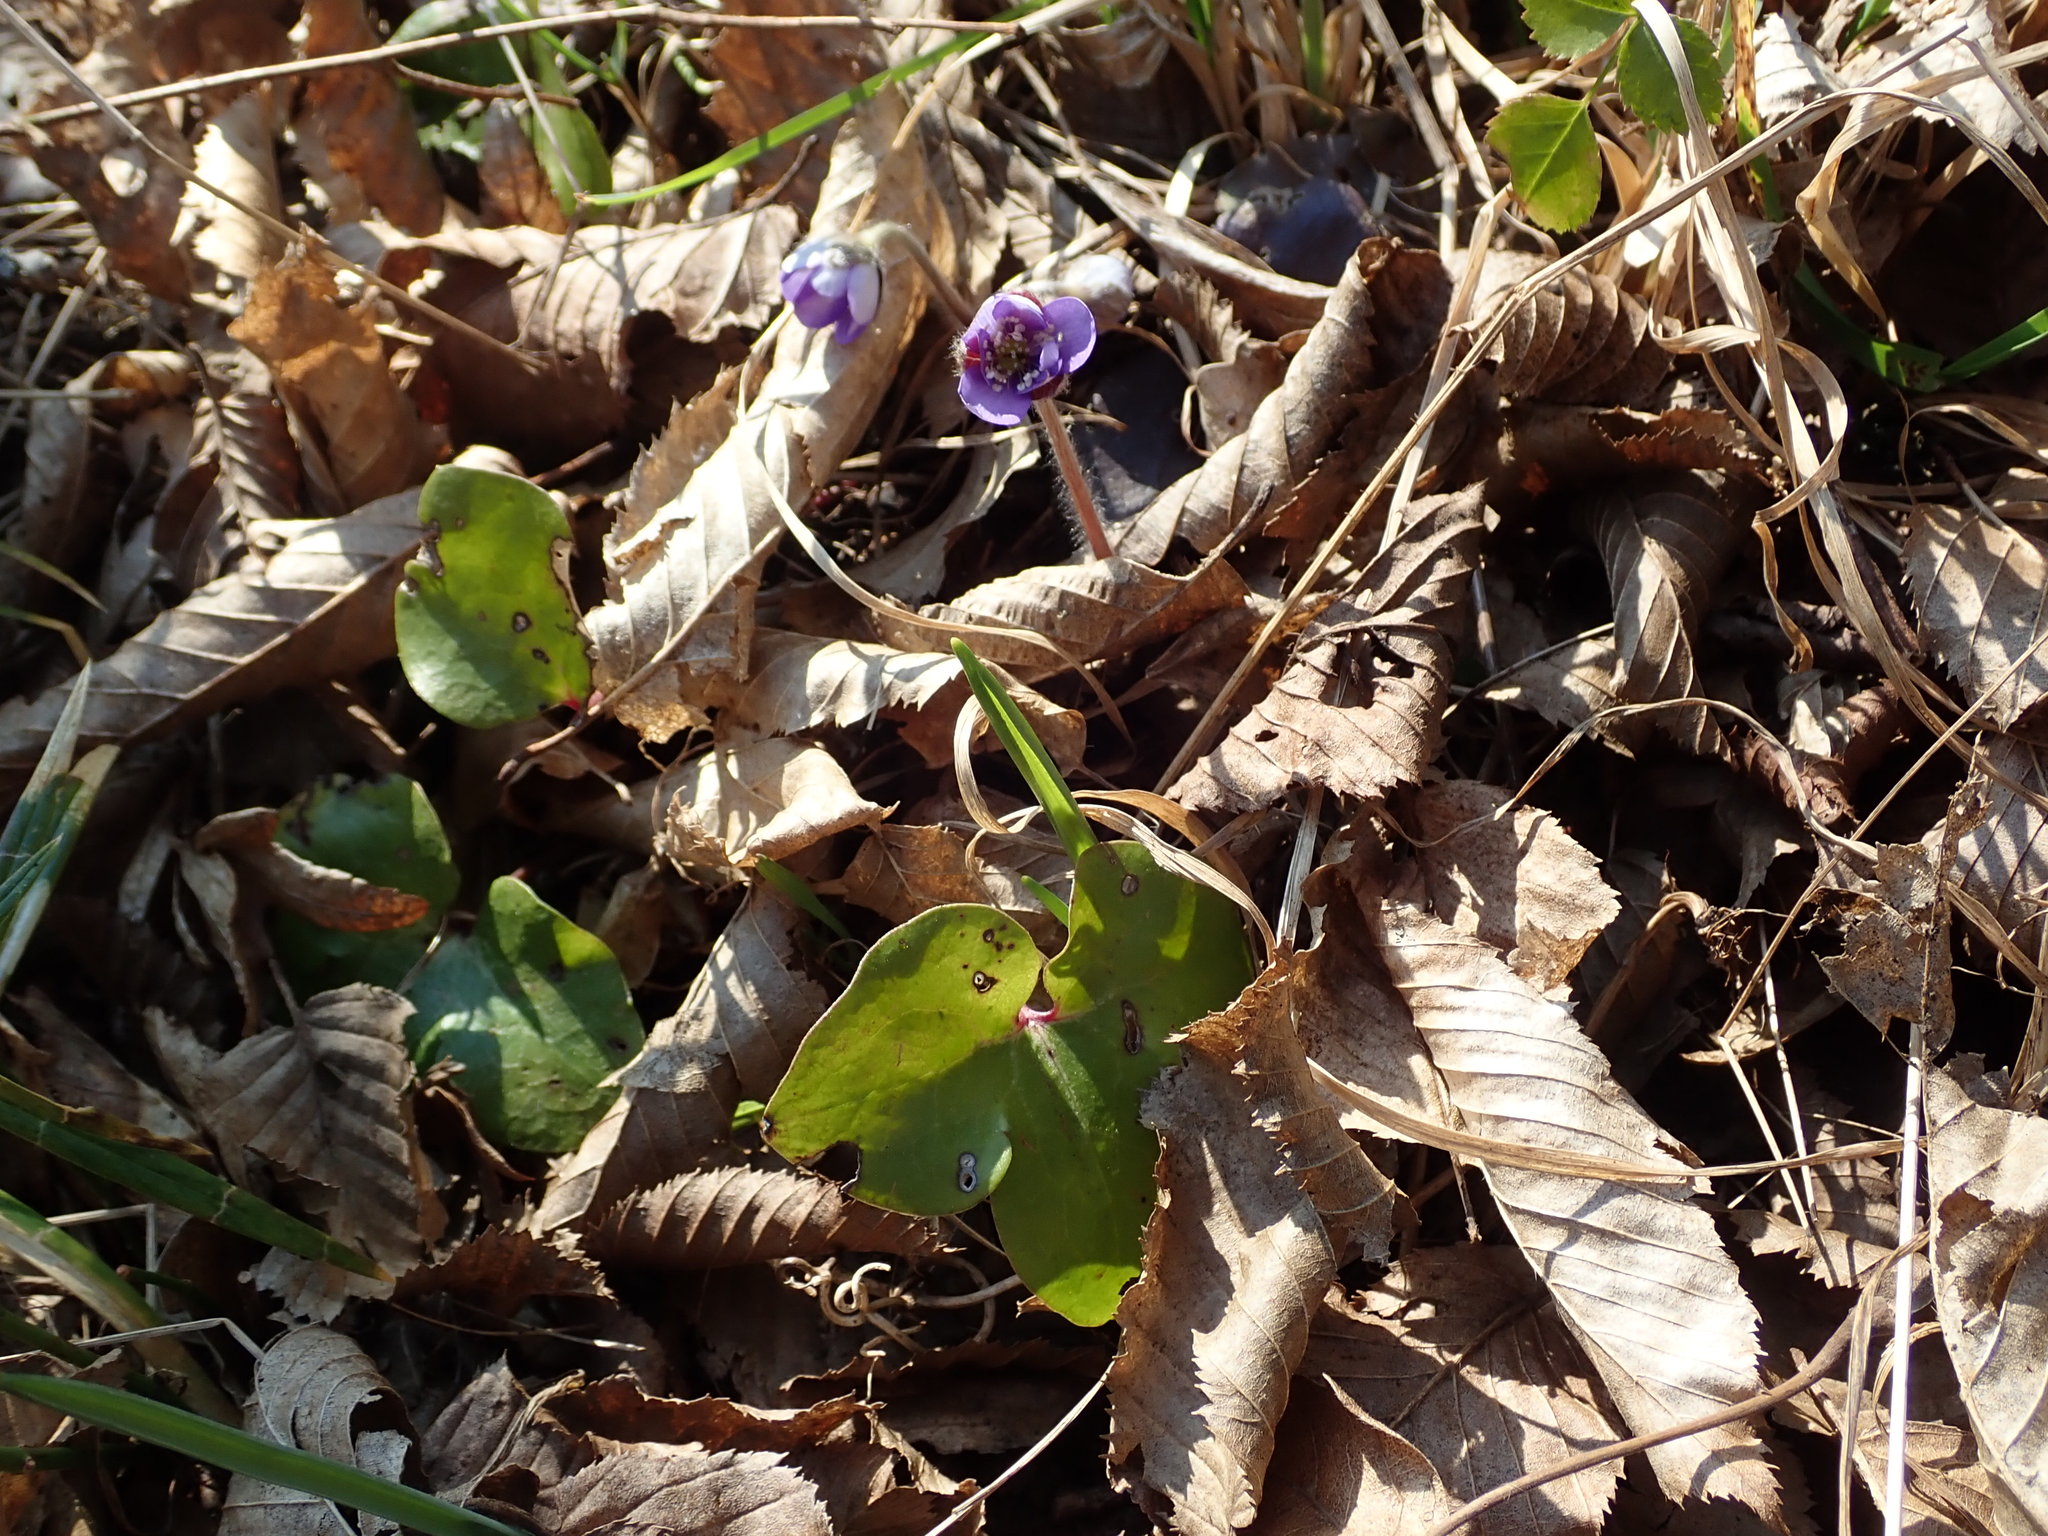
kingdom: Plantae
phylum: Tracheophyta
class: Magnoliopsida
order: Ranunculales
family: Ranunculaceae
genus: Hepatica
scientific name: Hepatica nobilis
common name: Liverleaf
